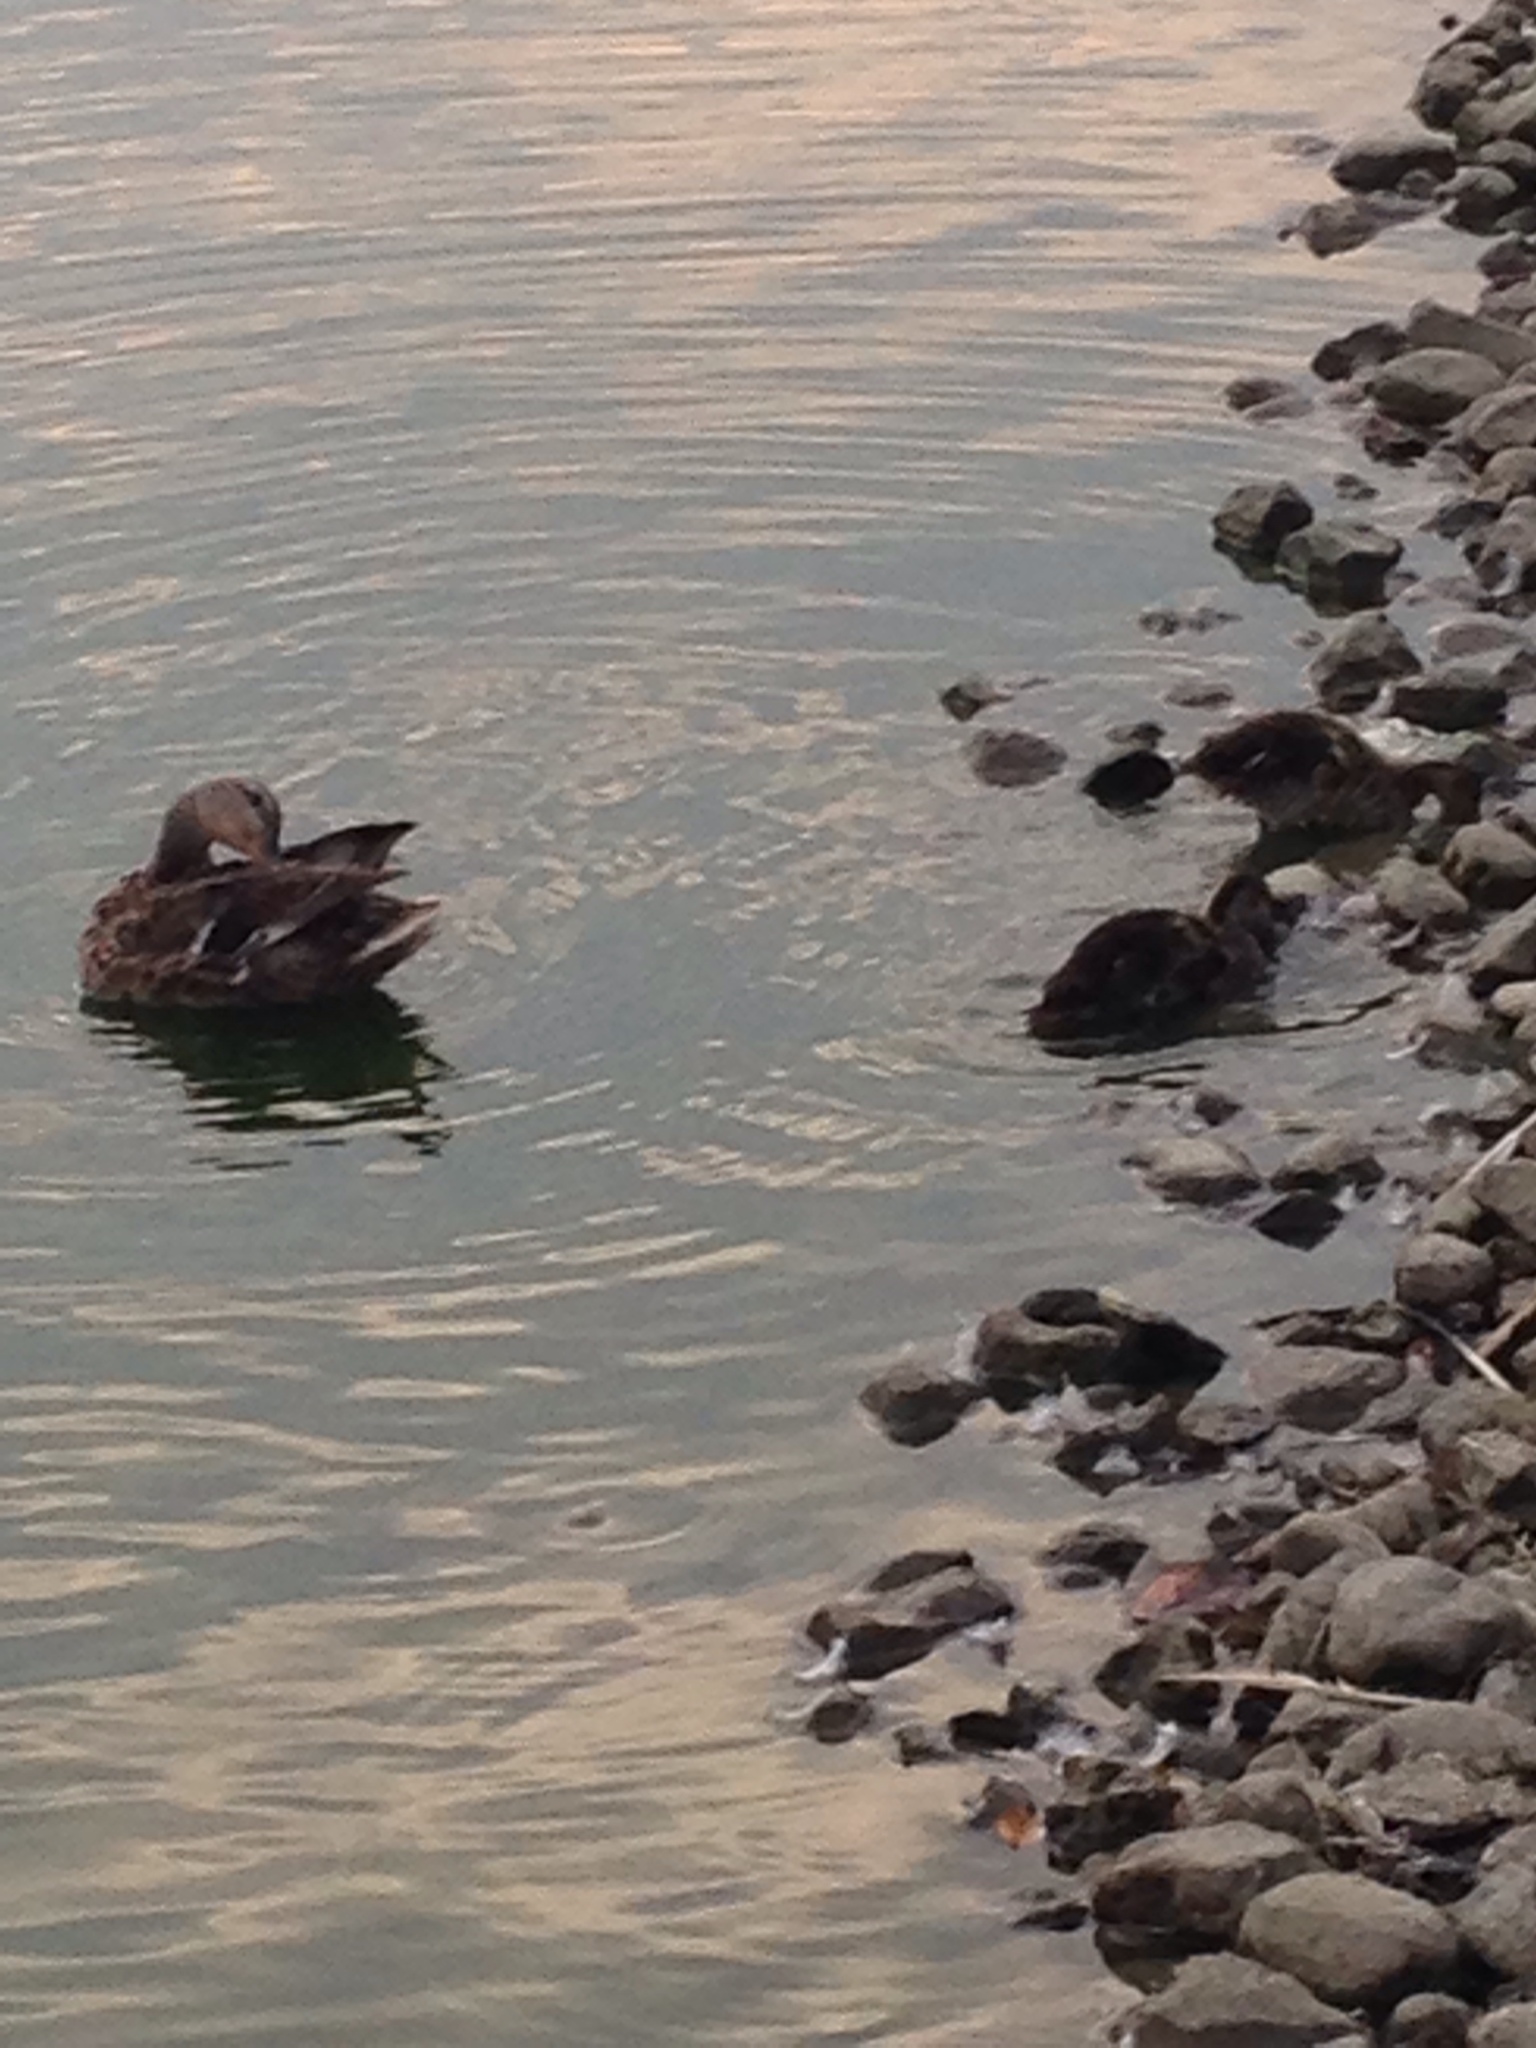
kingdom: Animalia
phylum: Chordata
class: Aves
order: Anseriformes
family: Anatidae
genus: Anas
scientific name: Anas platyrhynchos
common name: Mallard
